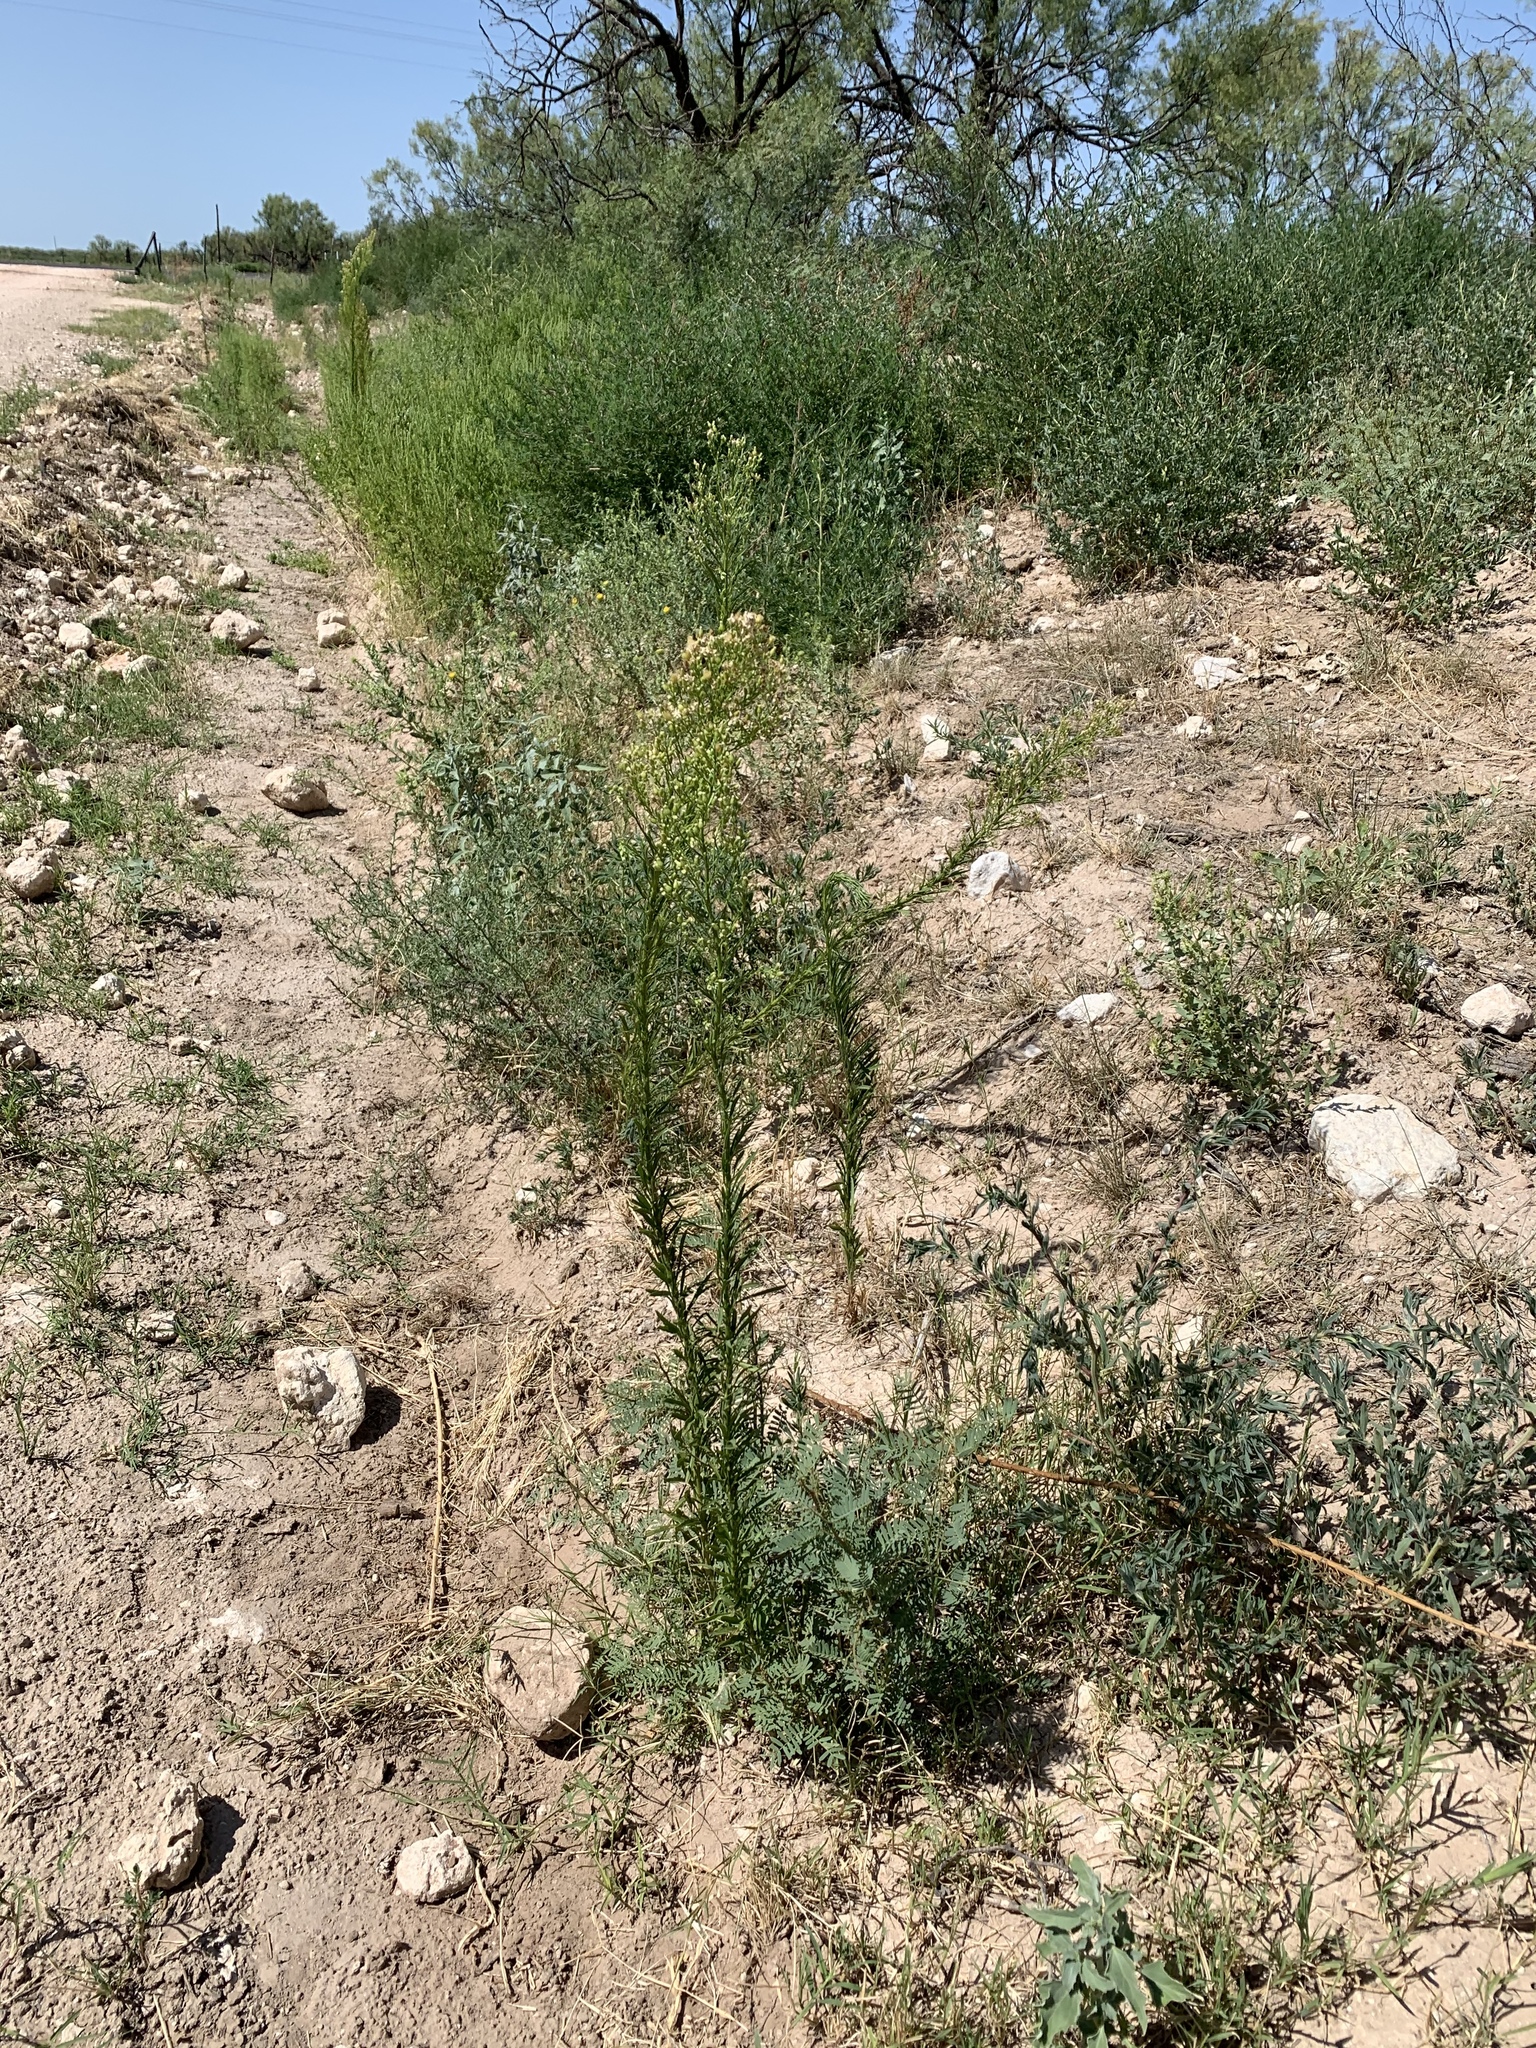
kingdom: Plantae
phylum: Tracheophyta
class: Magnoliopsida
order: Asterales
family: Asteraceae
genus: Erigeron
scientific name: Erigeron canadensis
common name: Canadian fleabane
